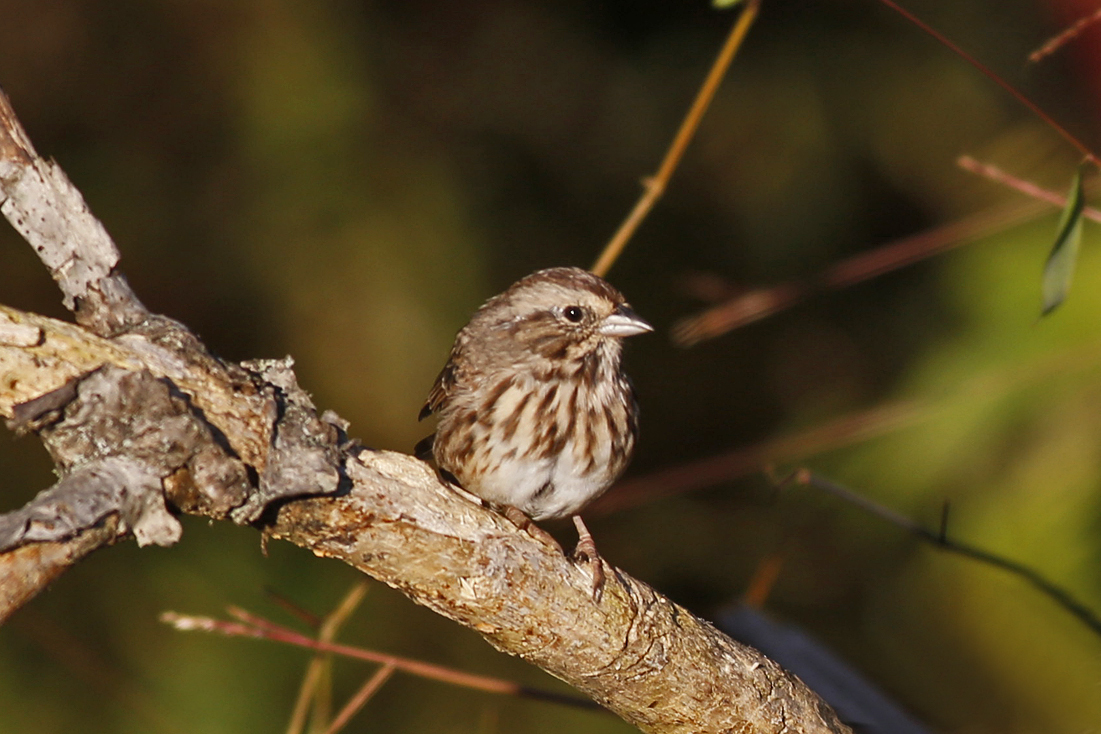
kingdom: Animalia
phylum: Chordata
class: Aves
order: Passeriformes
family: Passerellidae
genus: Melospiza
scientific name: Melospiza melodia
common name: Song sparrow
